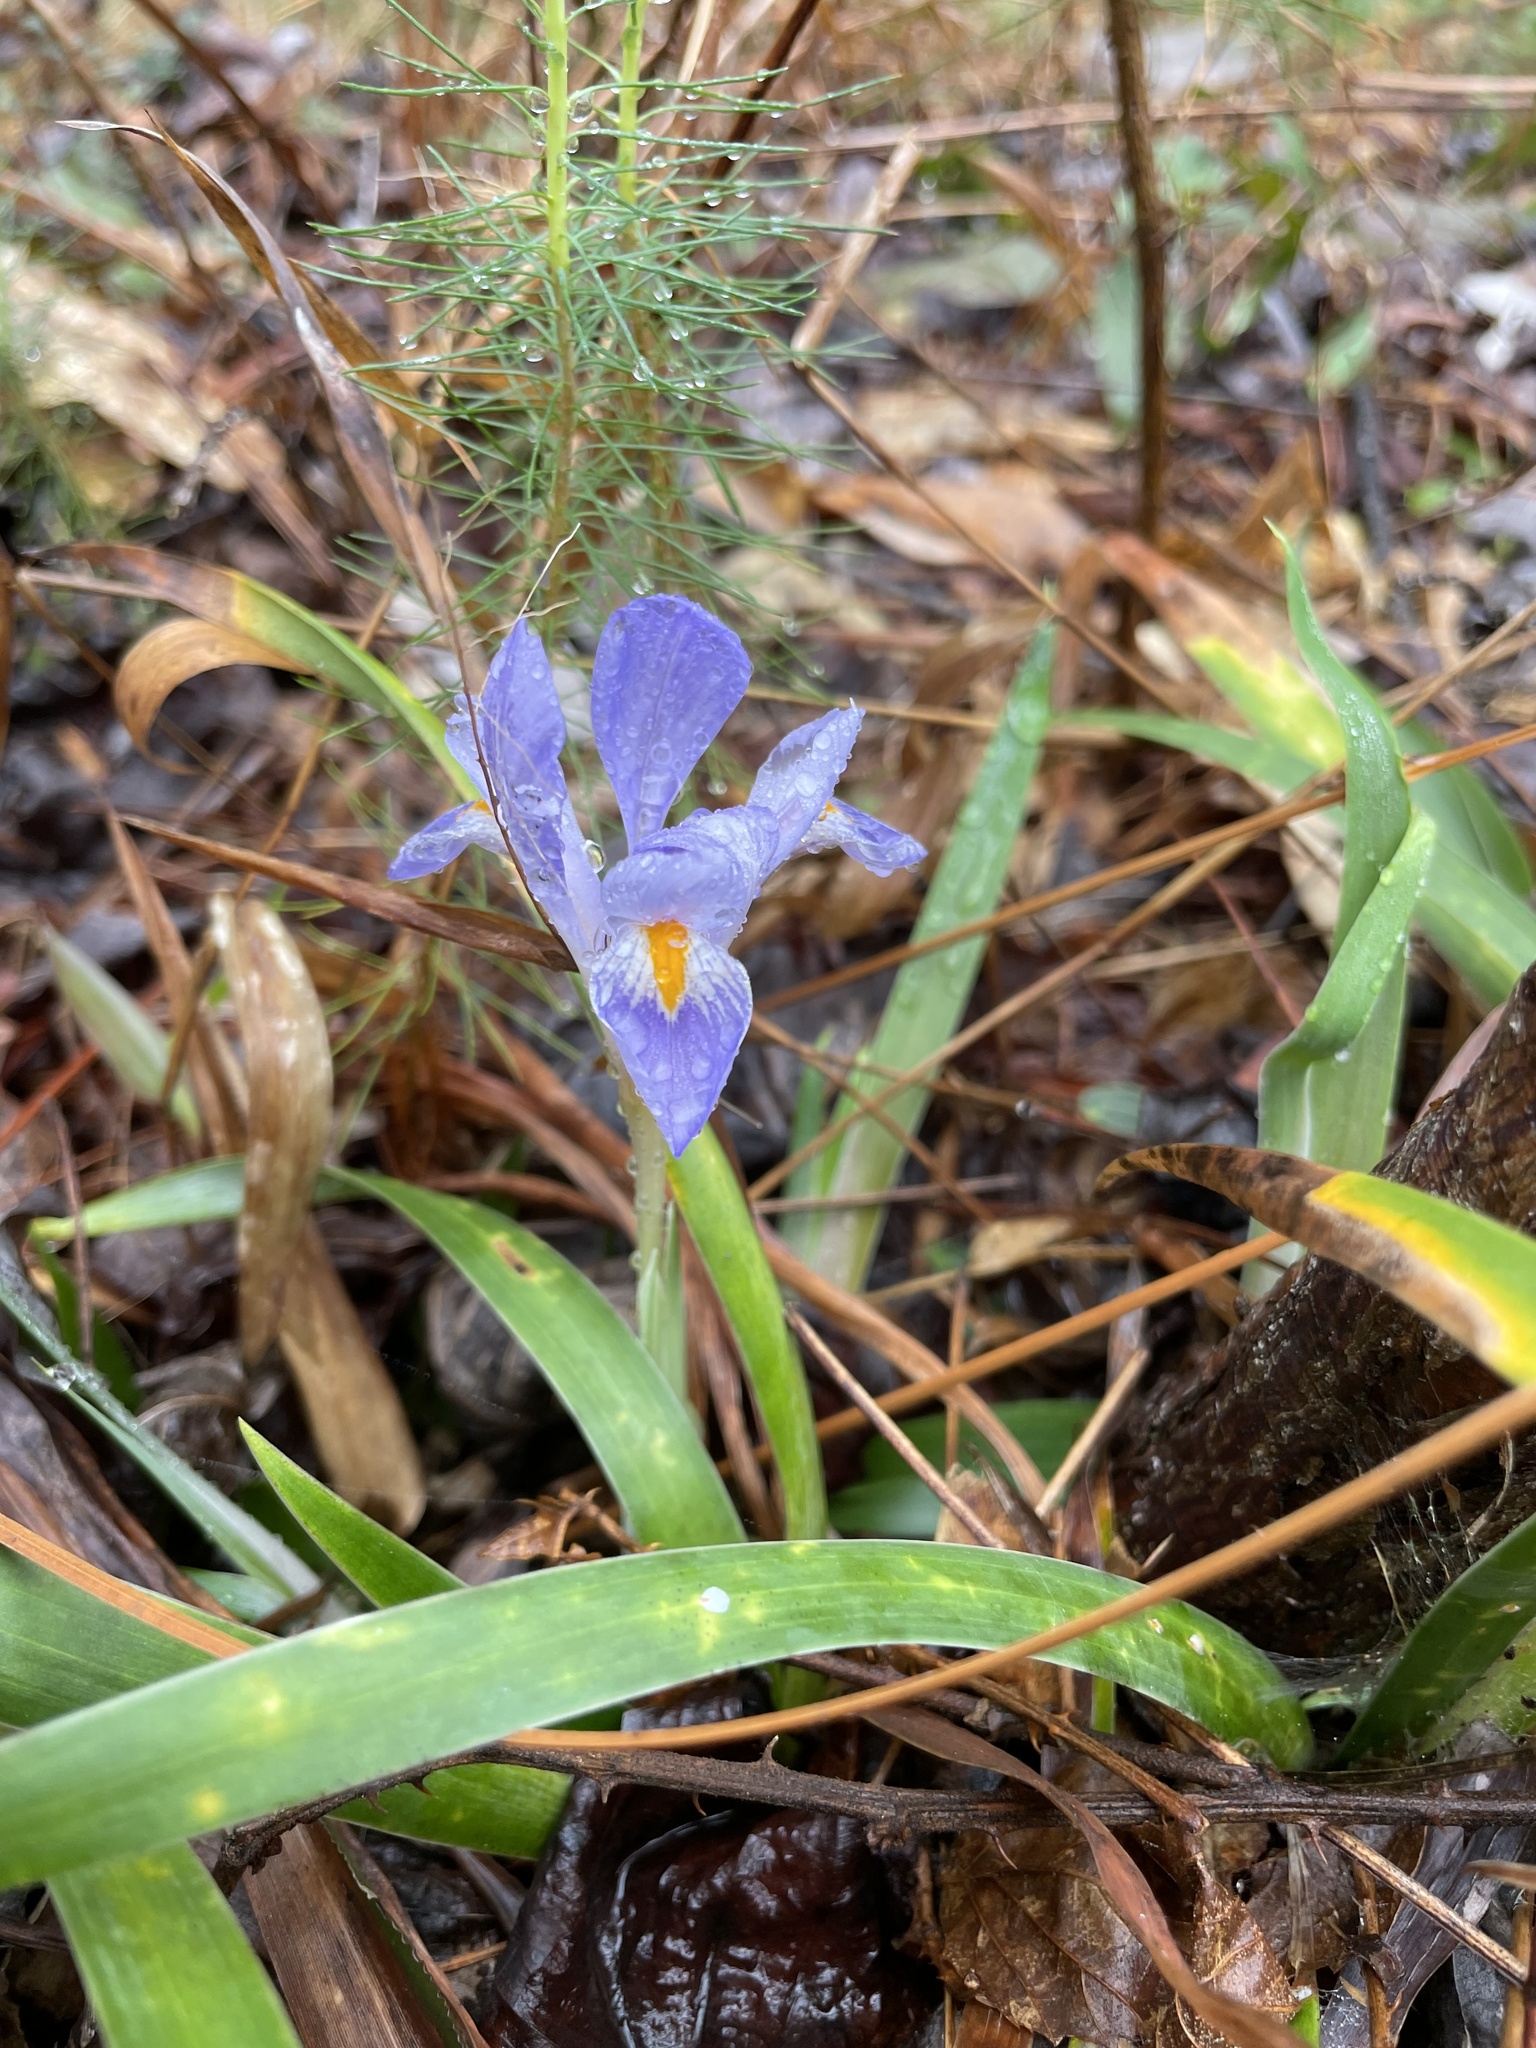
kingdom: Plantae
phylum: Tracheophyta
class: Liliopsida
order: Asparagales
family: Iridaceae
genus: Iris
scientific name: Iris verna
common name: Dwarf iris
